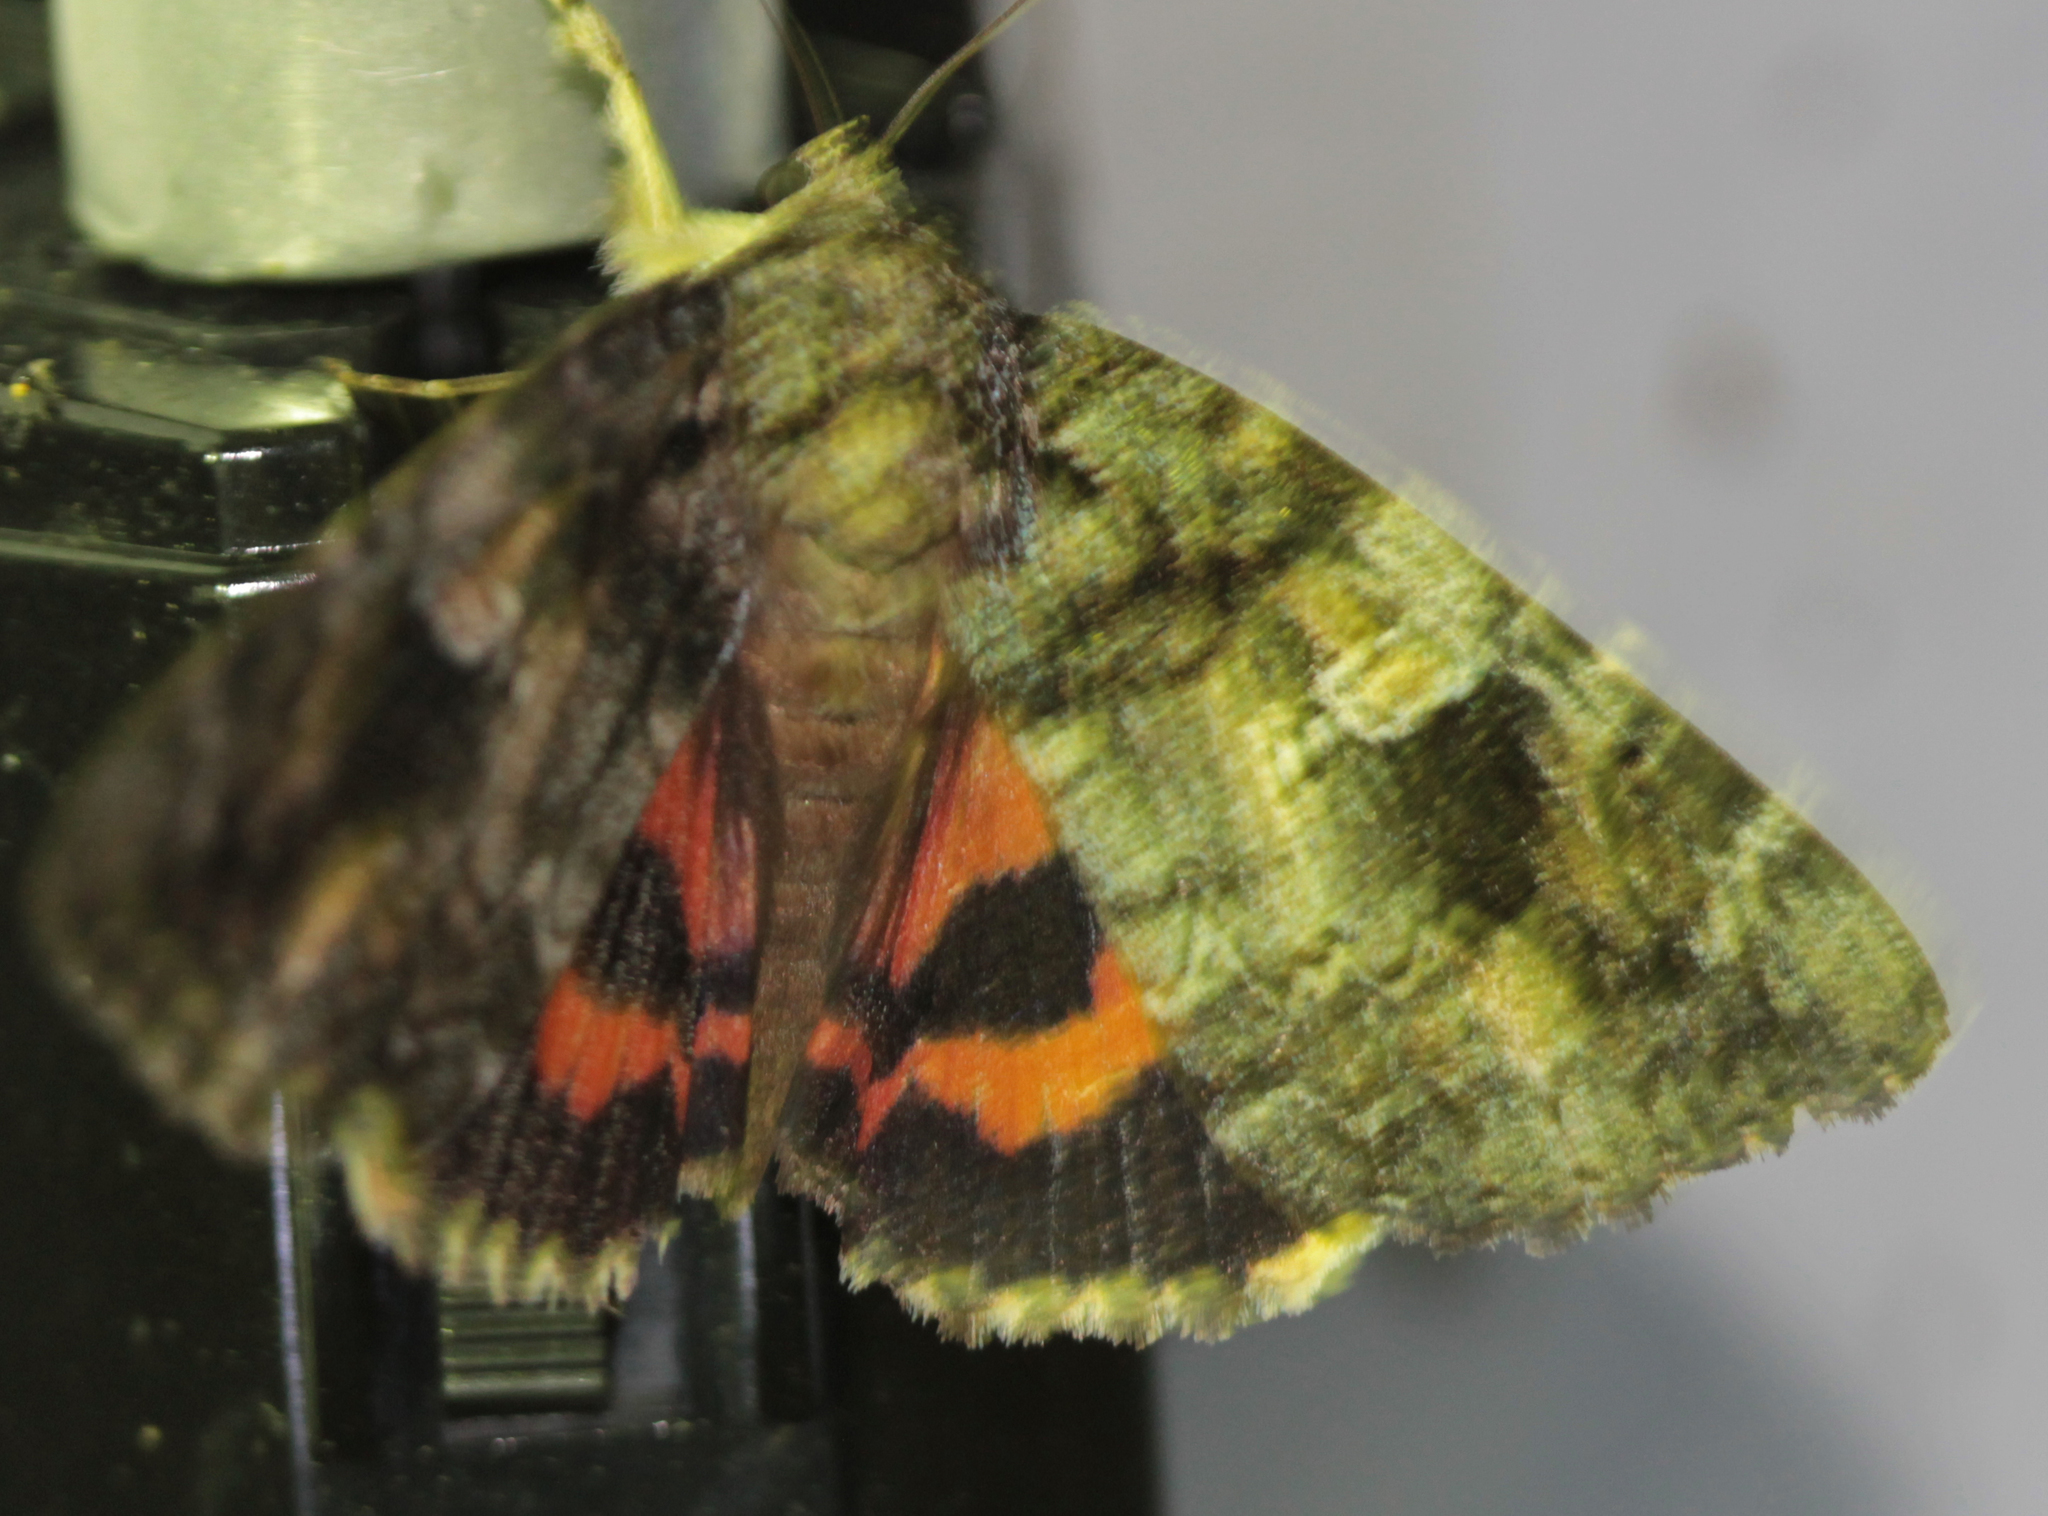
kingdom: Animalia
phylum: Arthropoda
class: Insecta
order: Lepidoptera
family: Erebidae
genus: Catocala
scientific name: Catocala ilia
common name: Ilia underwing
